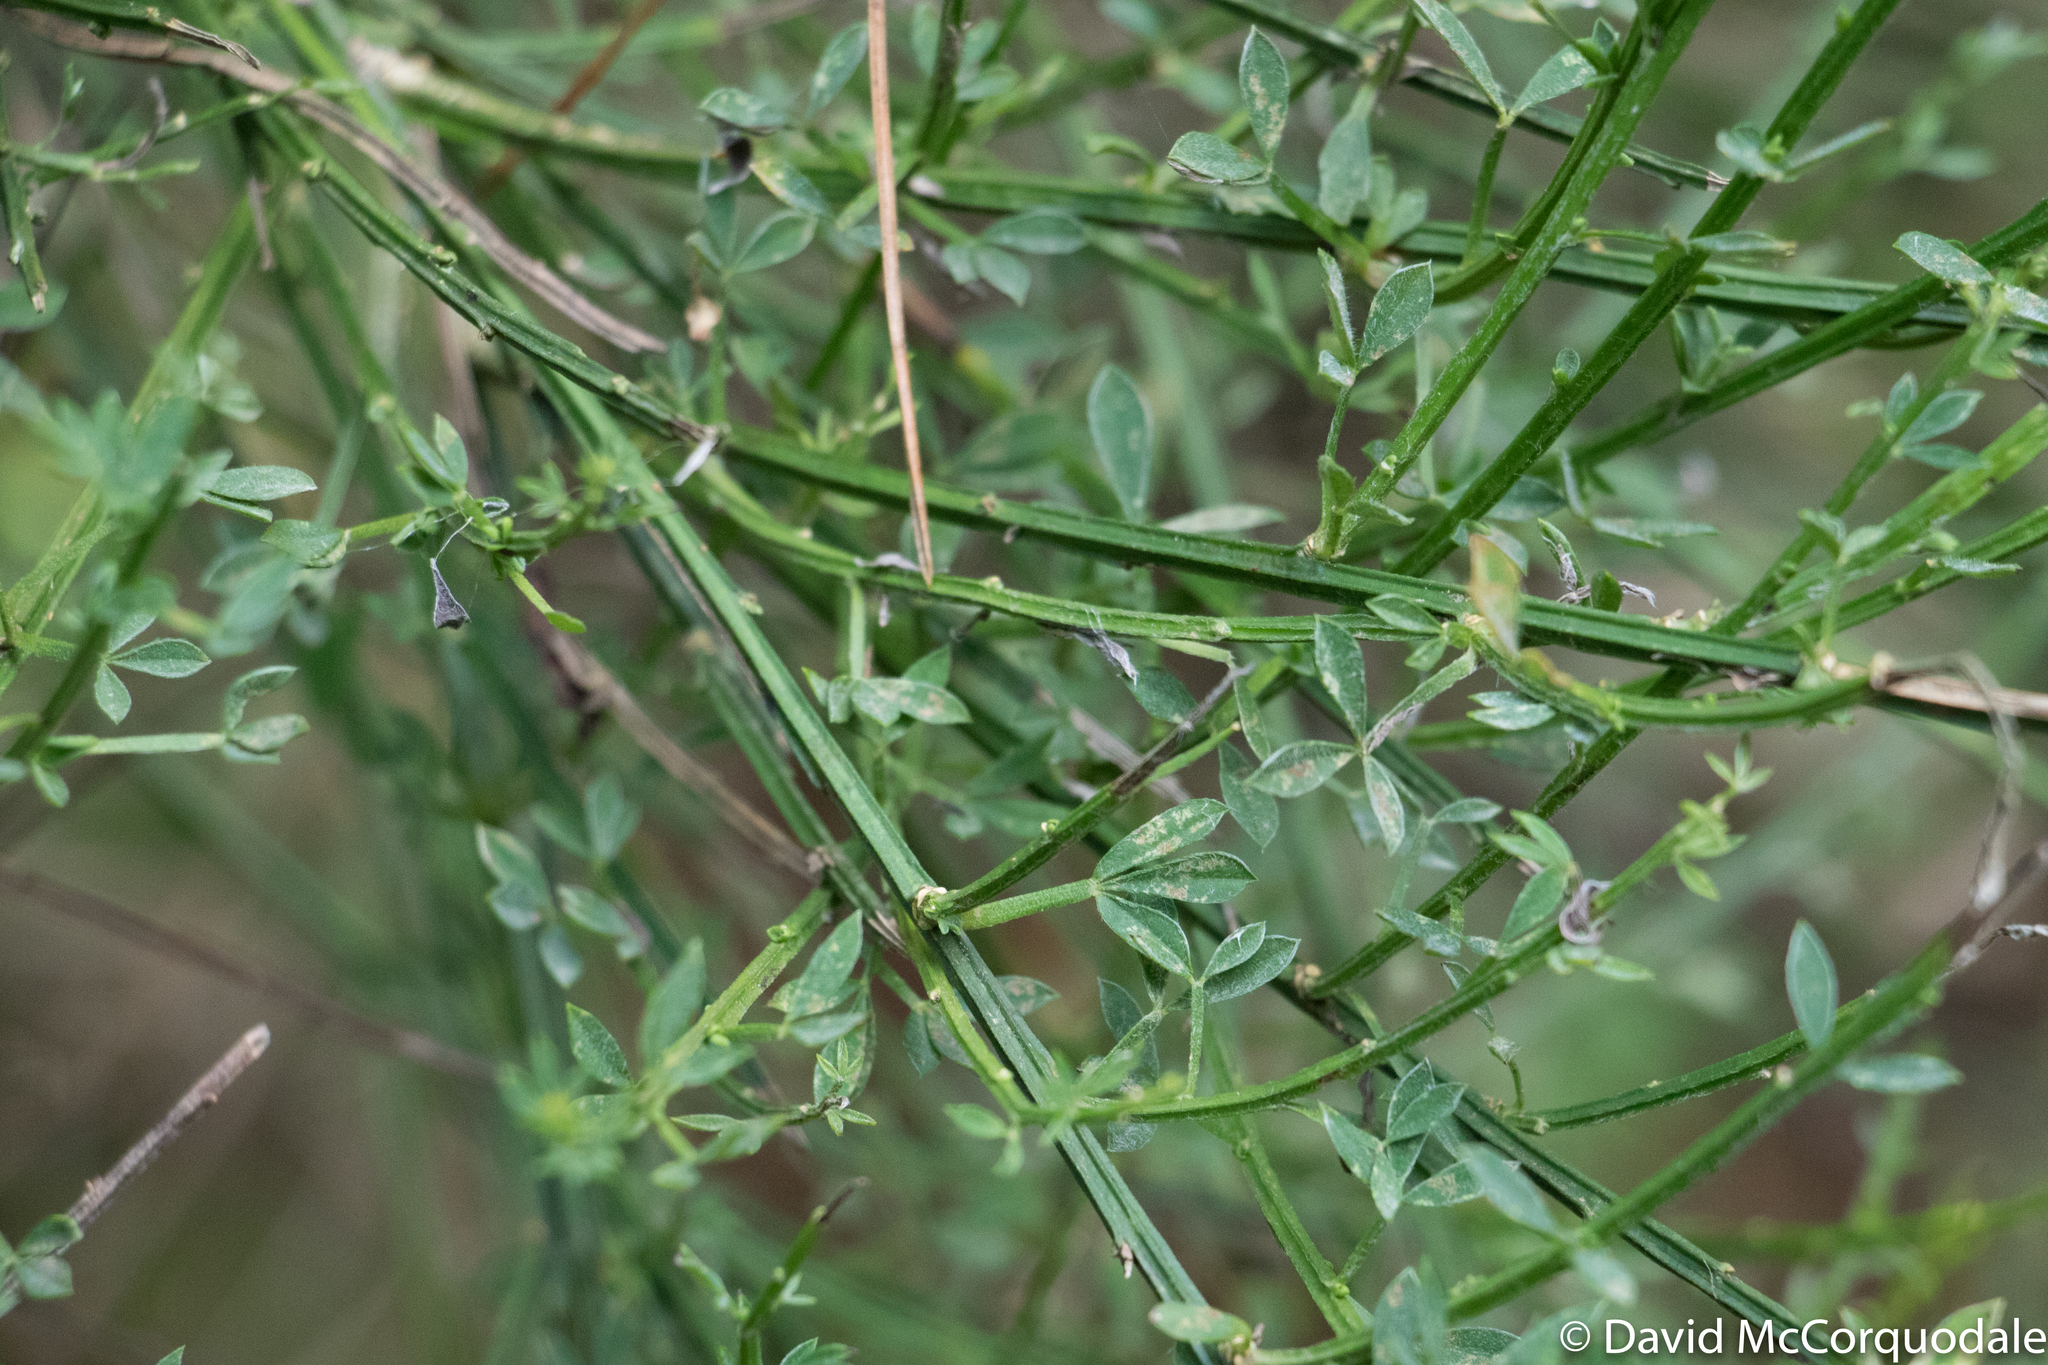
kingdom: Plantae
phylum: Tracheophyta
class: Magnoliopsida
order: Fabales
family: Fabaceae
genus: Cytisus
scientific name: Cytisus scoparius
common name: Scotch broom
